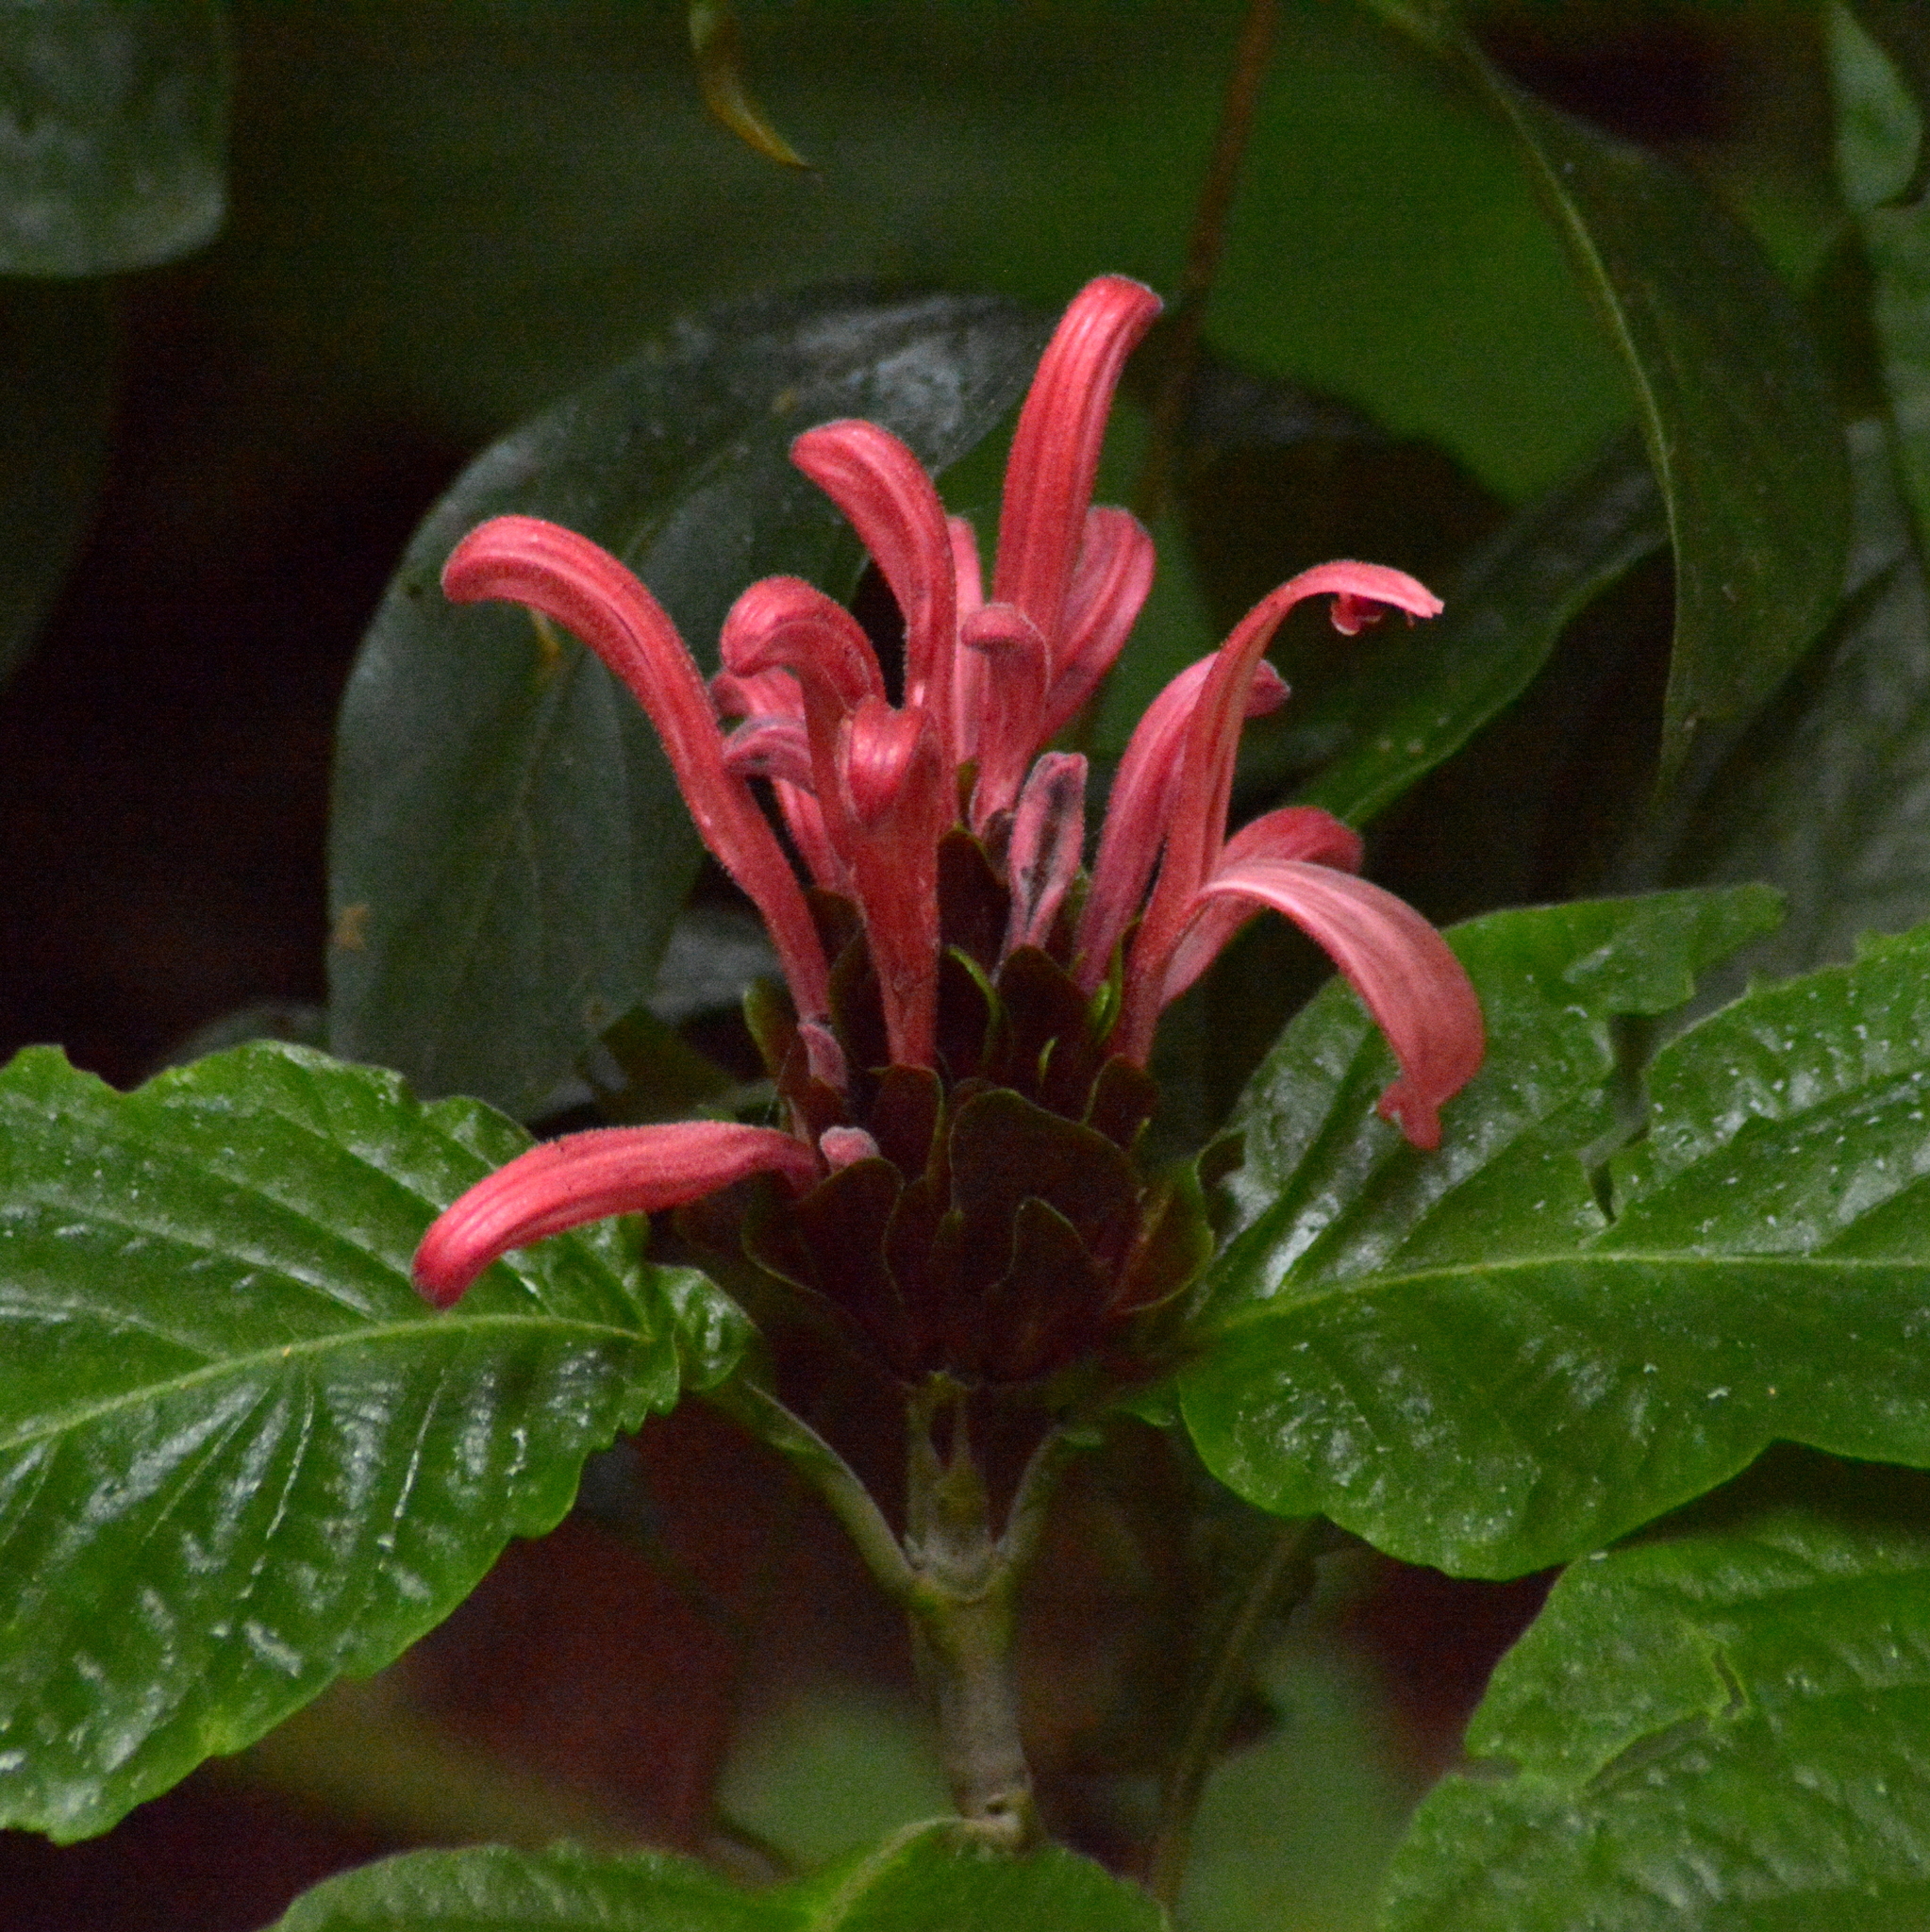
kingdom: Plantae
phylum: Tracheophyta
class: Magnoliopsida
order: Lamiales
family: Acanthaceae
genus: Justicia
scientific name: Justicia carnea
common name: Brazilian-plume
